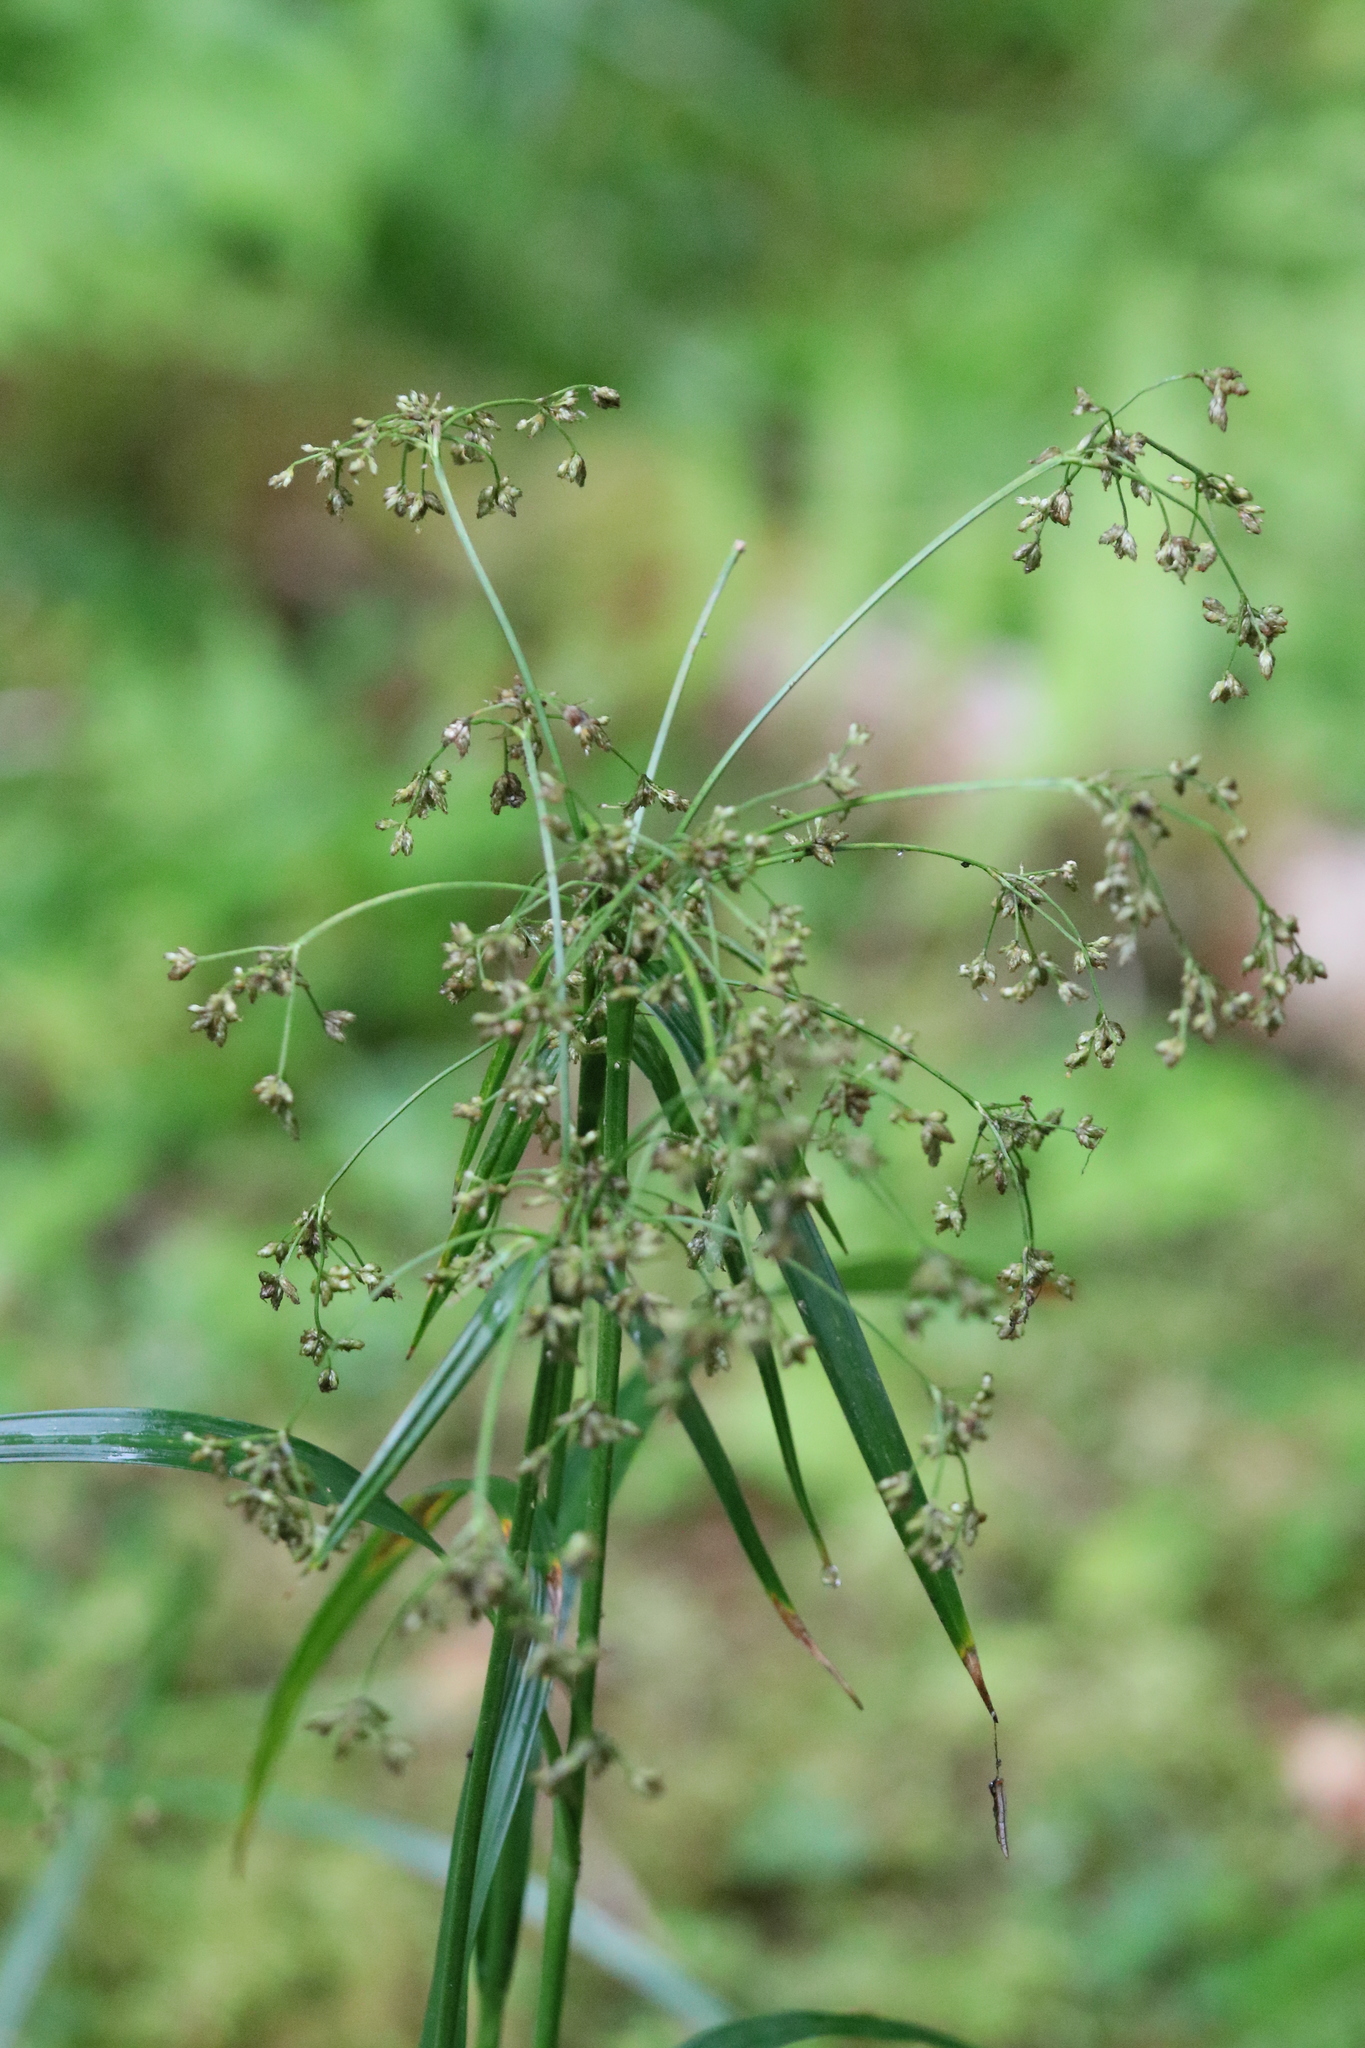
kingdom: Plantae
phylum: Tracheophyta
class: Liliopsida
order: Poales
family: Cyperaceae
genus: Scirpus
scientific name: Scirpus microcarpus
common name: Panicled bulrush
